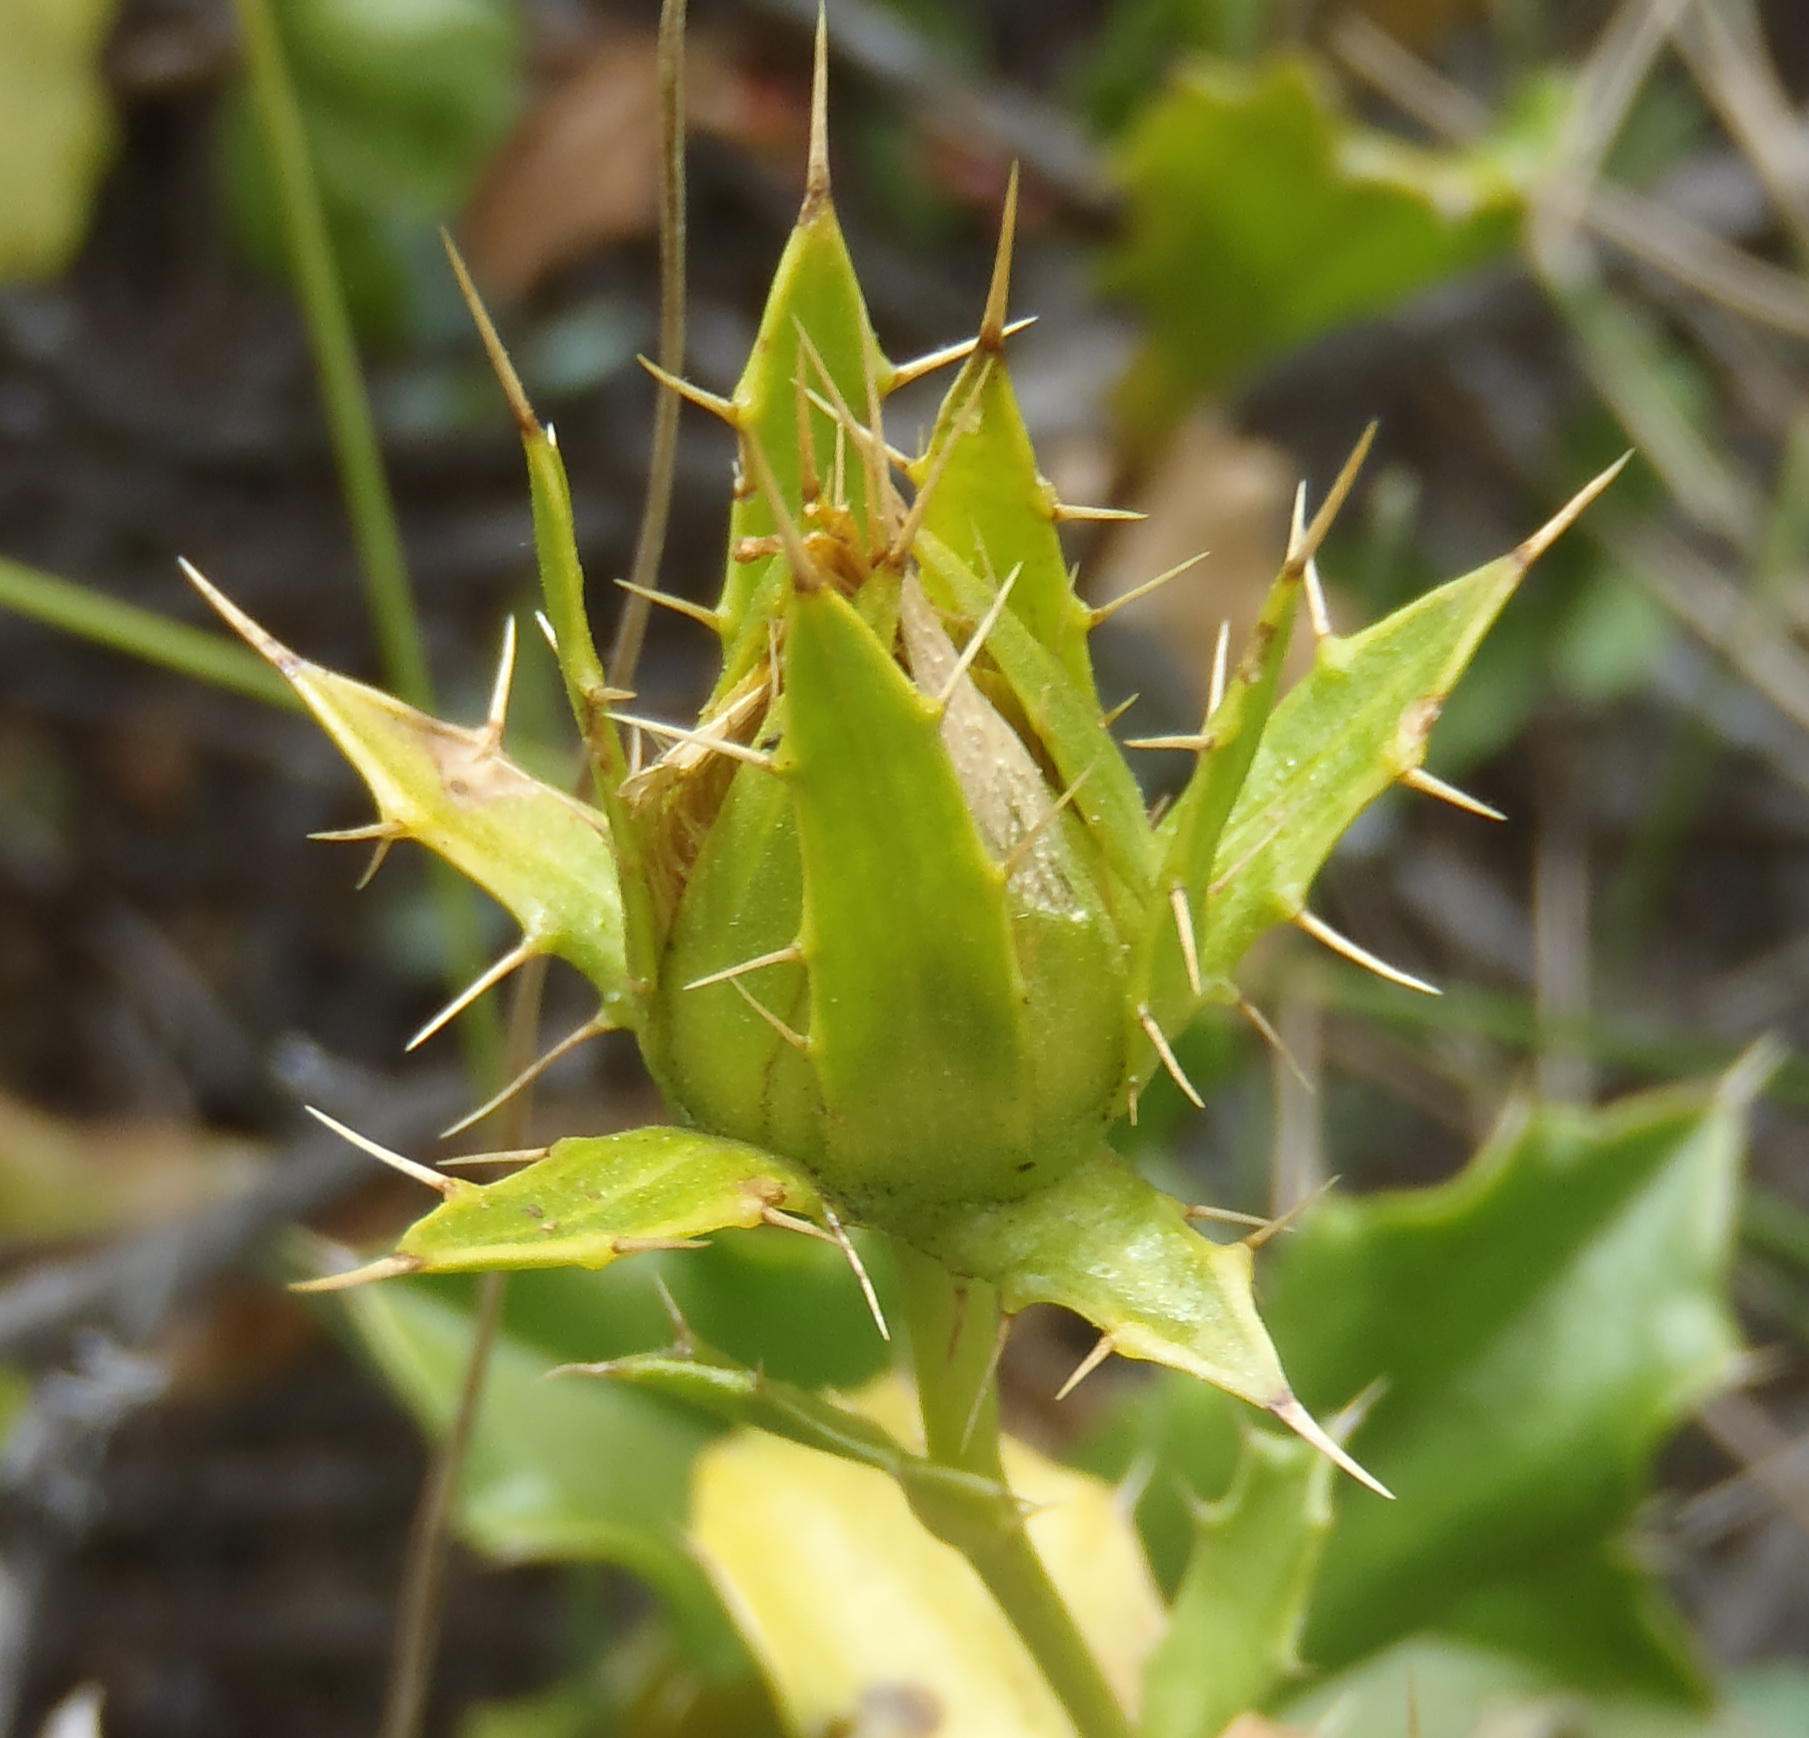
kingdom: Plantae
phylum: Tracheophyta
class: Magnoliopsida
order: Asterales
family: Asteraceae
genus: Berkheya
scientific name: Berkheya spinosa
